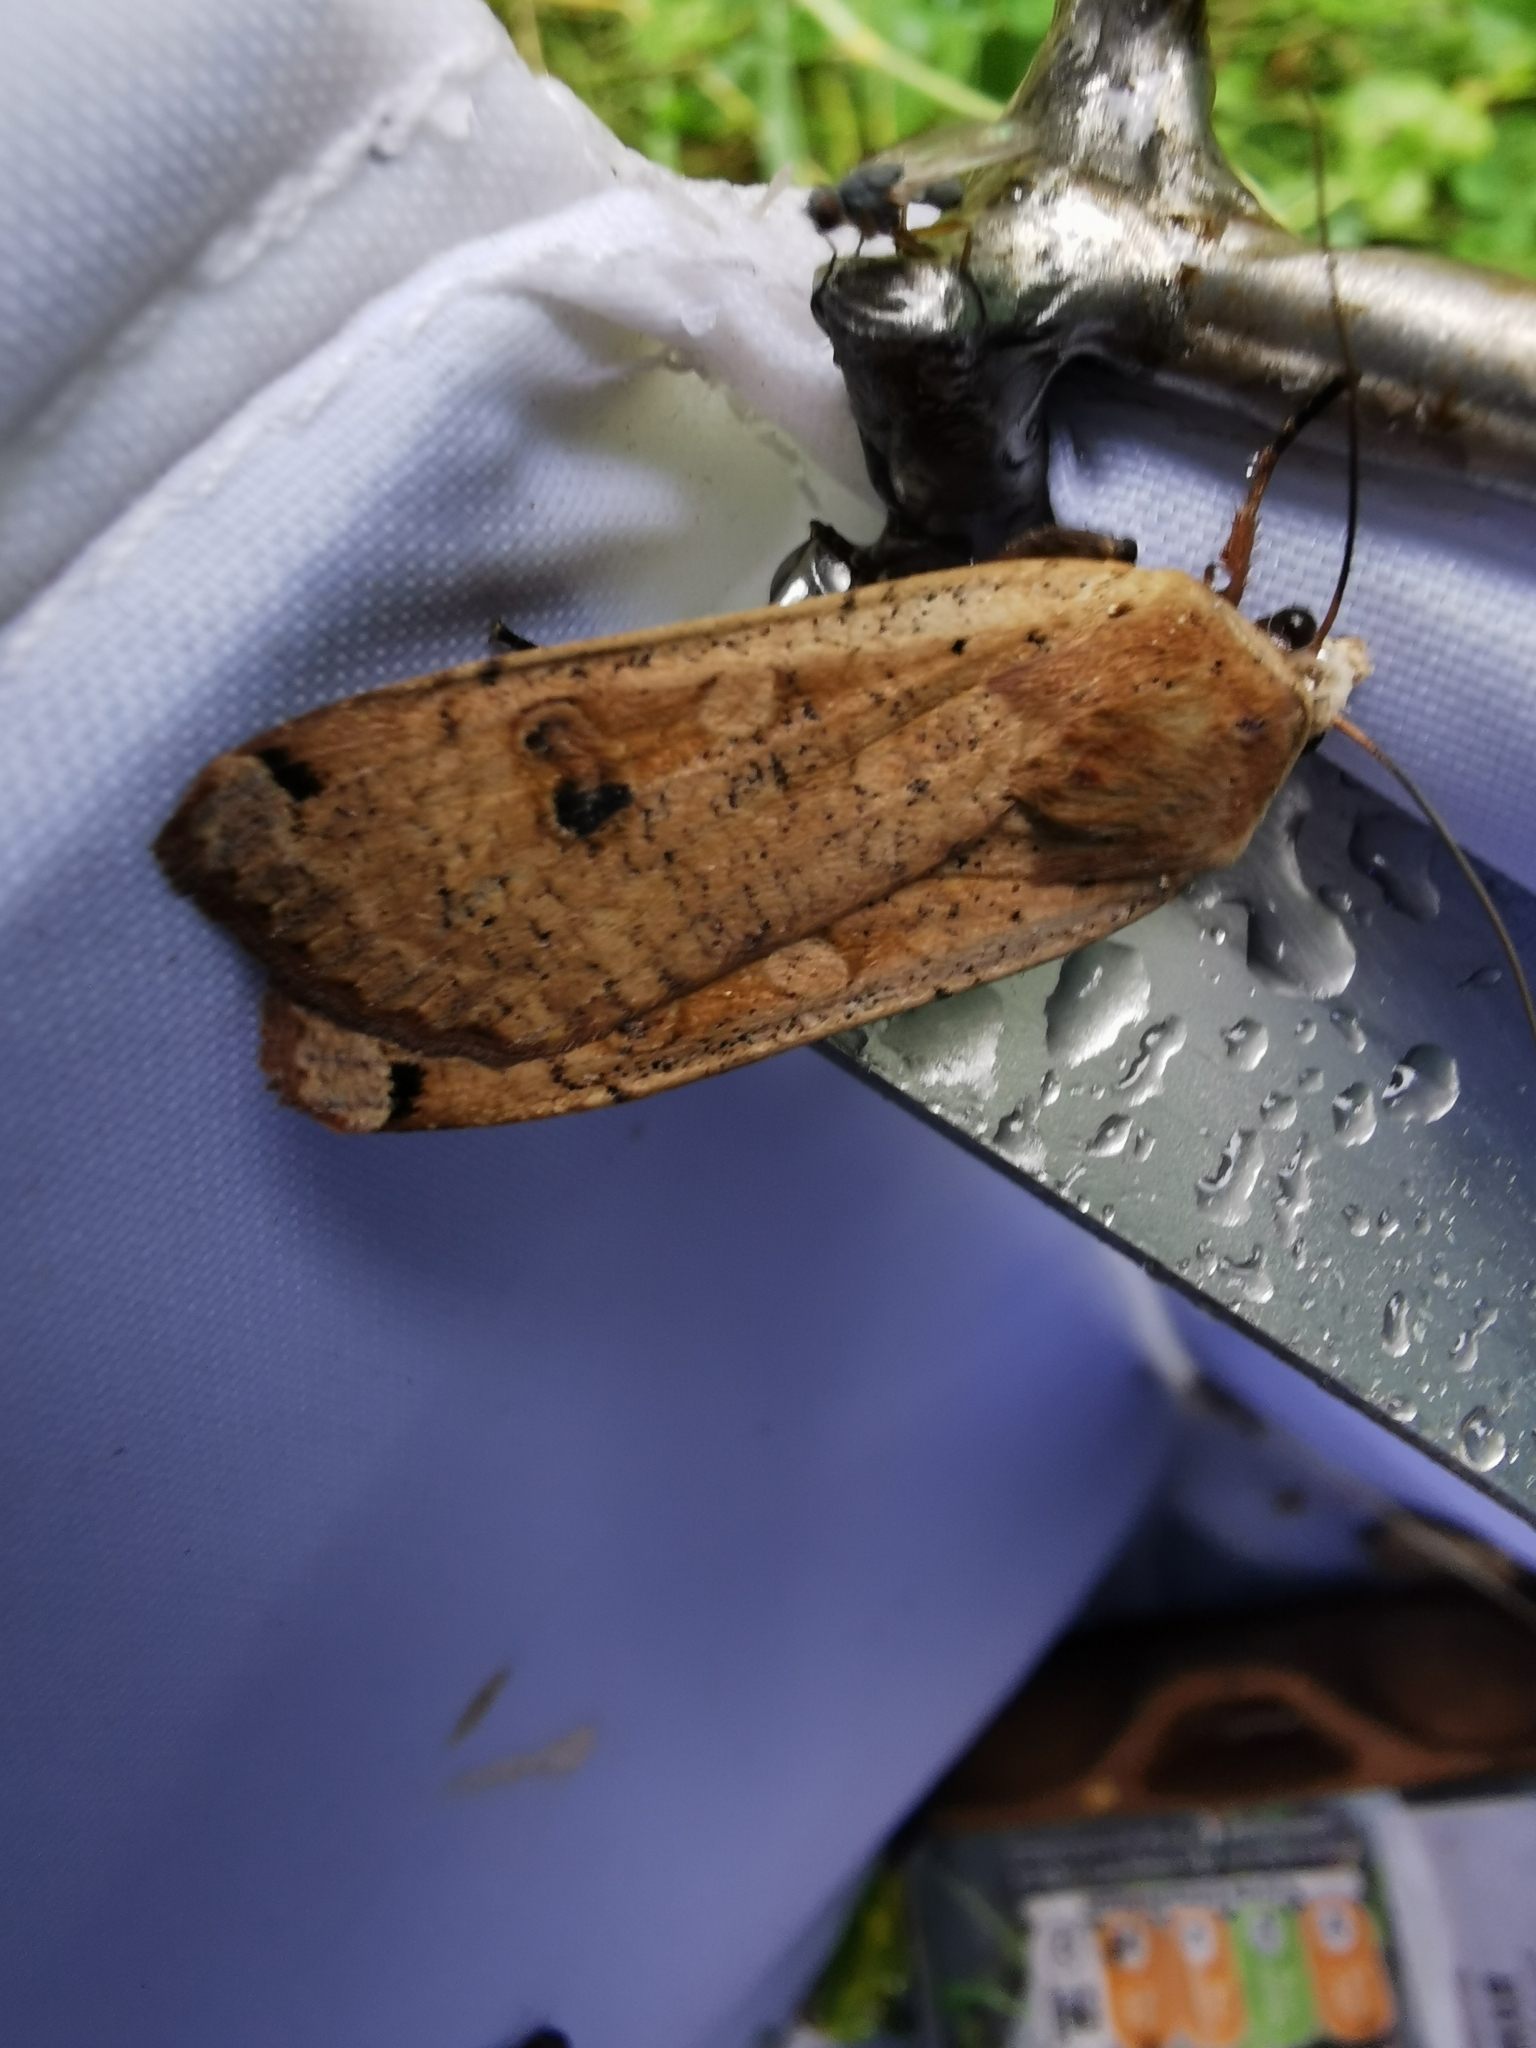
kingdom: Animalia
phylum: Arthropoda
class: Insecta
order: Lepidoptera
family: Noctuidae
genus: Noctua
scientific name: Noctua pronuba
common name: Large yellow underwing
